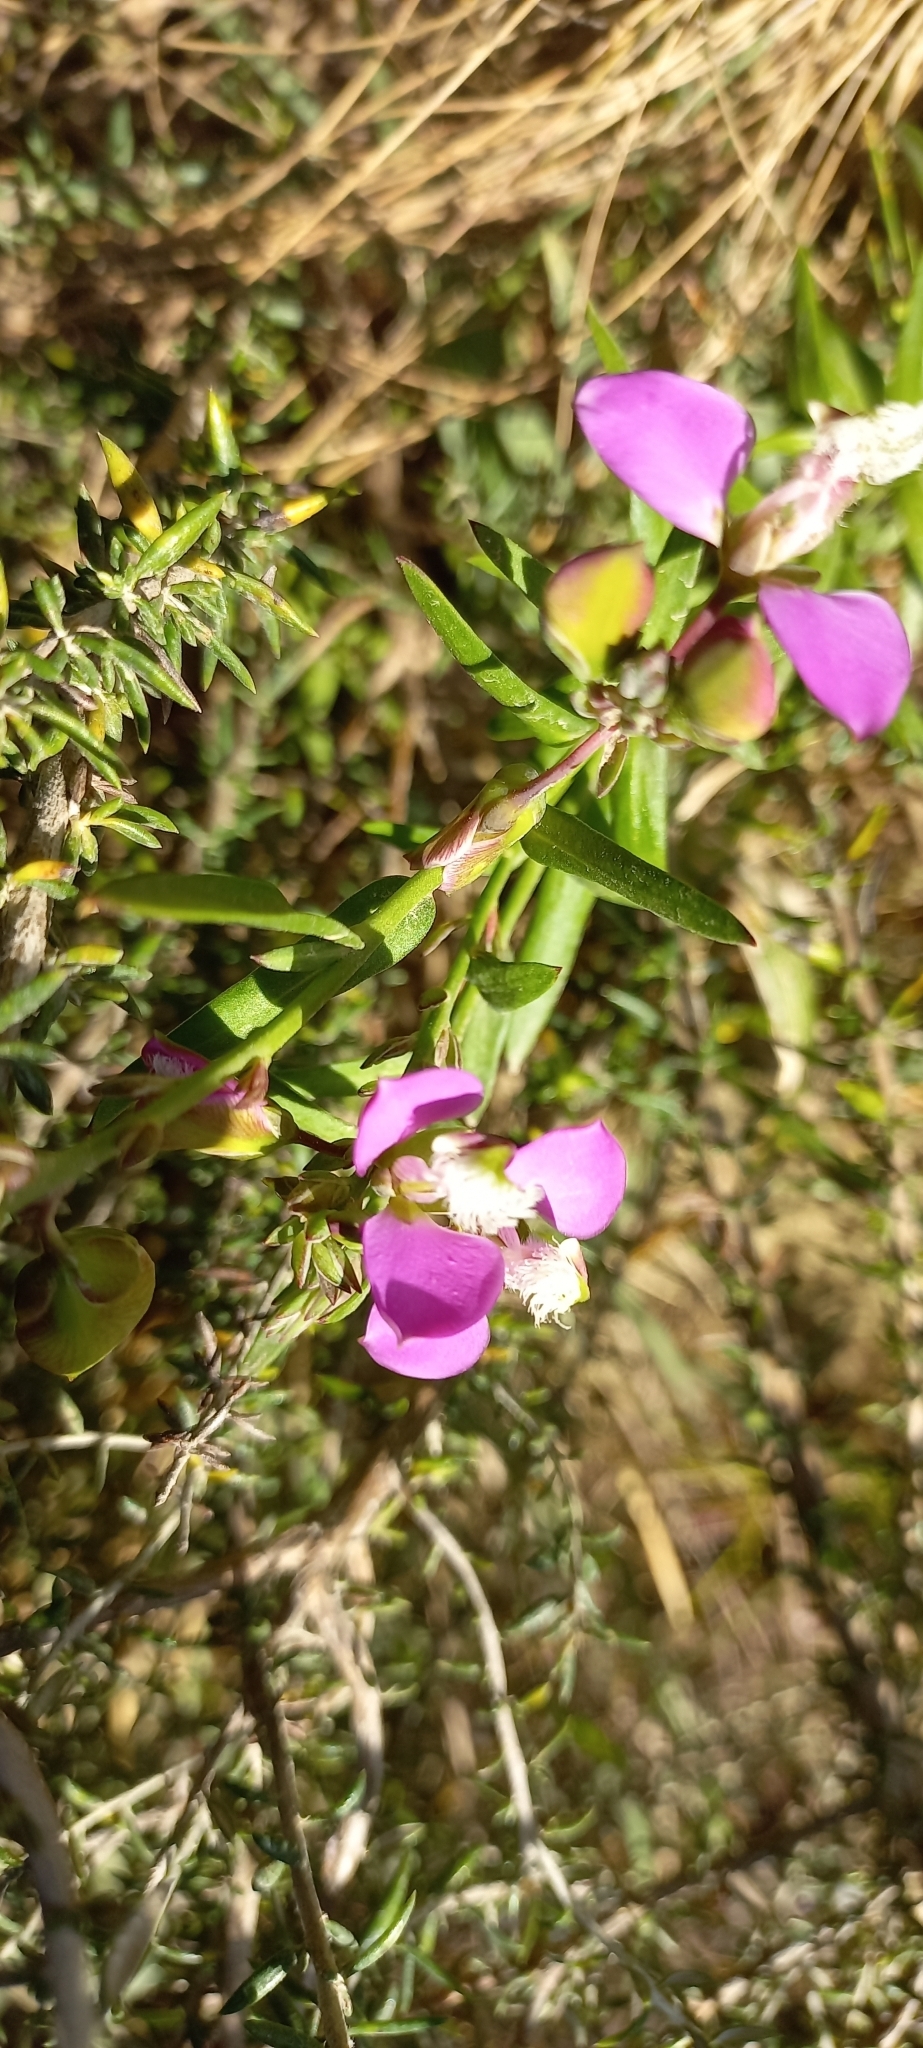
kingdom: Plantae
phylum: Tracheophyta
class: Magnoliopsida
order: Fabales
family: Polygalaceae
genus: Polygala
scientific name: Polygala myrtifolia
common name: Myrtle-leaf milkwort
